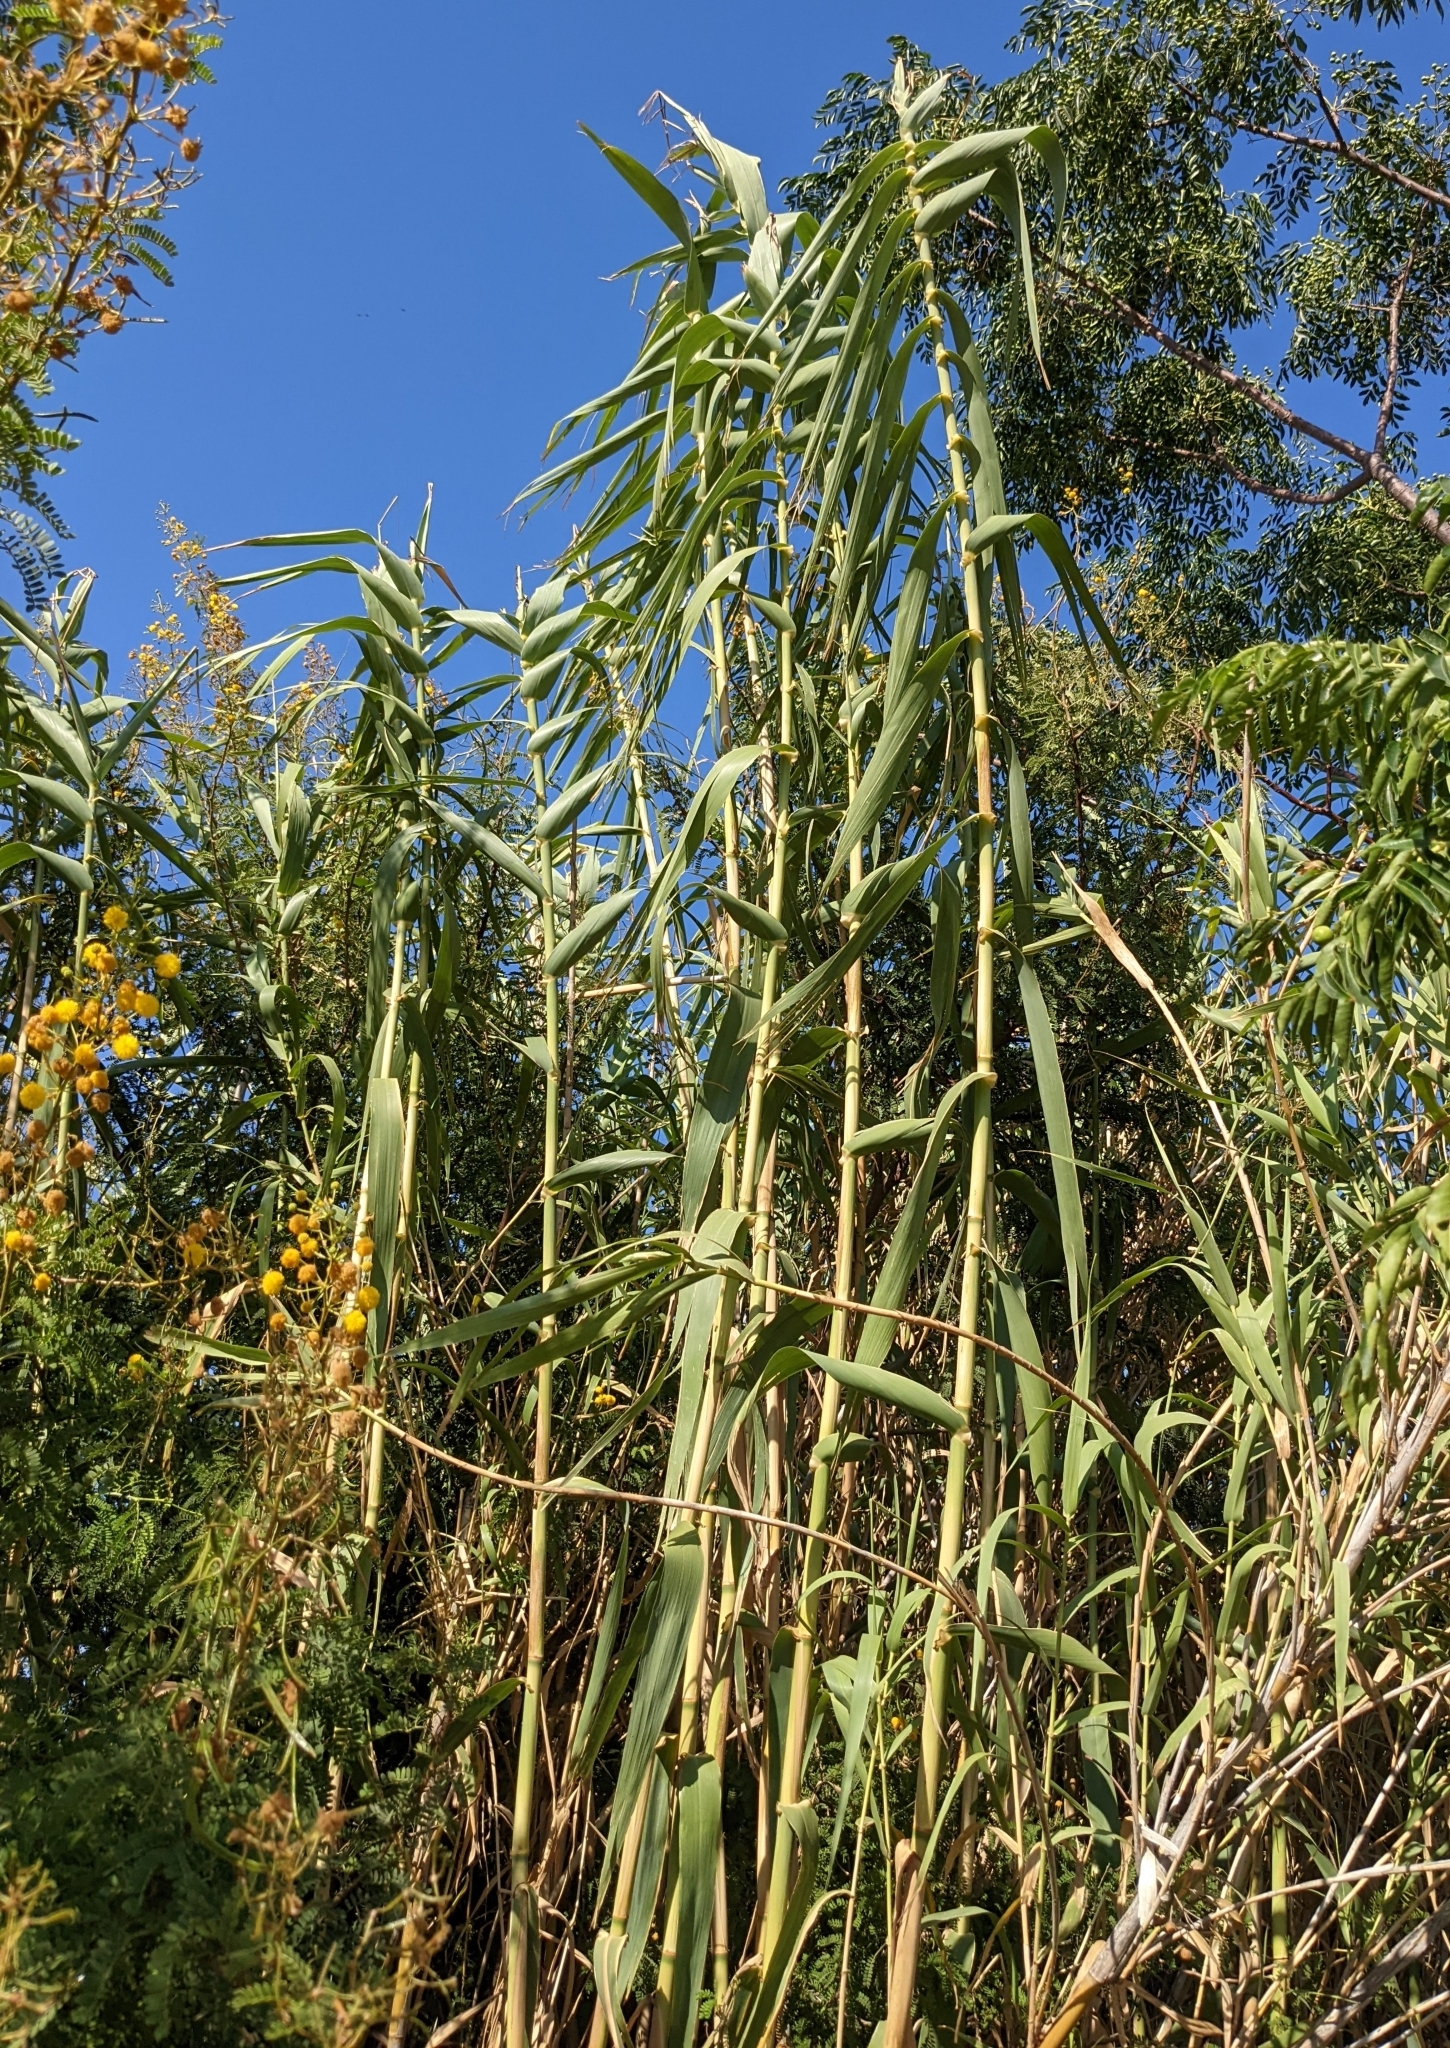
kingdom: Plantae
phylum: Tracheophyta
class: Liliopsida
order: Poales
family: Poaceae
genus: Arundo
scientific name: Arundo donax
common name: Giant reed
